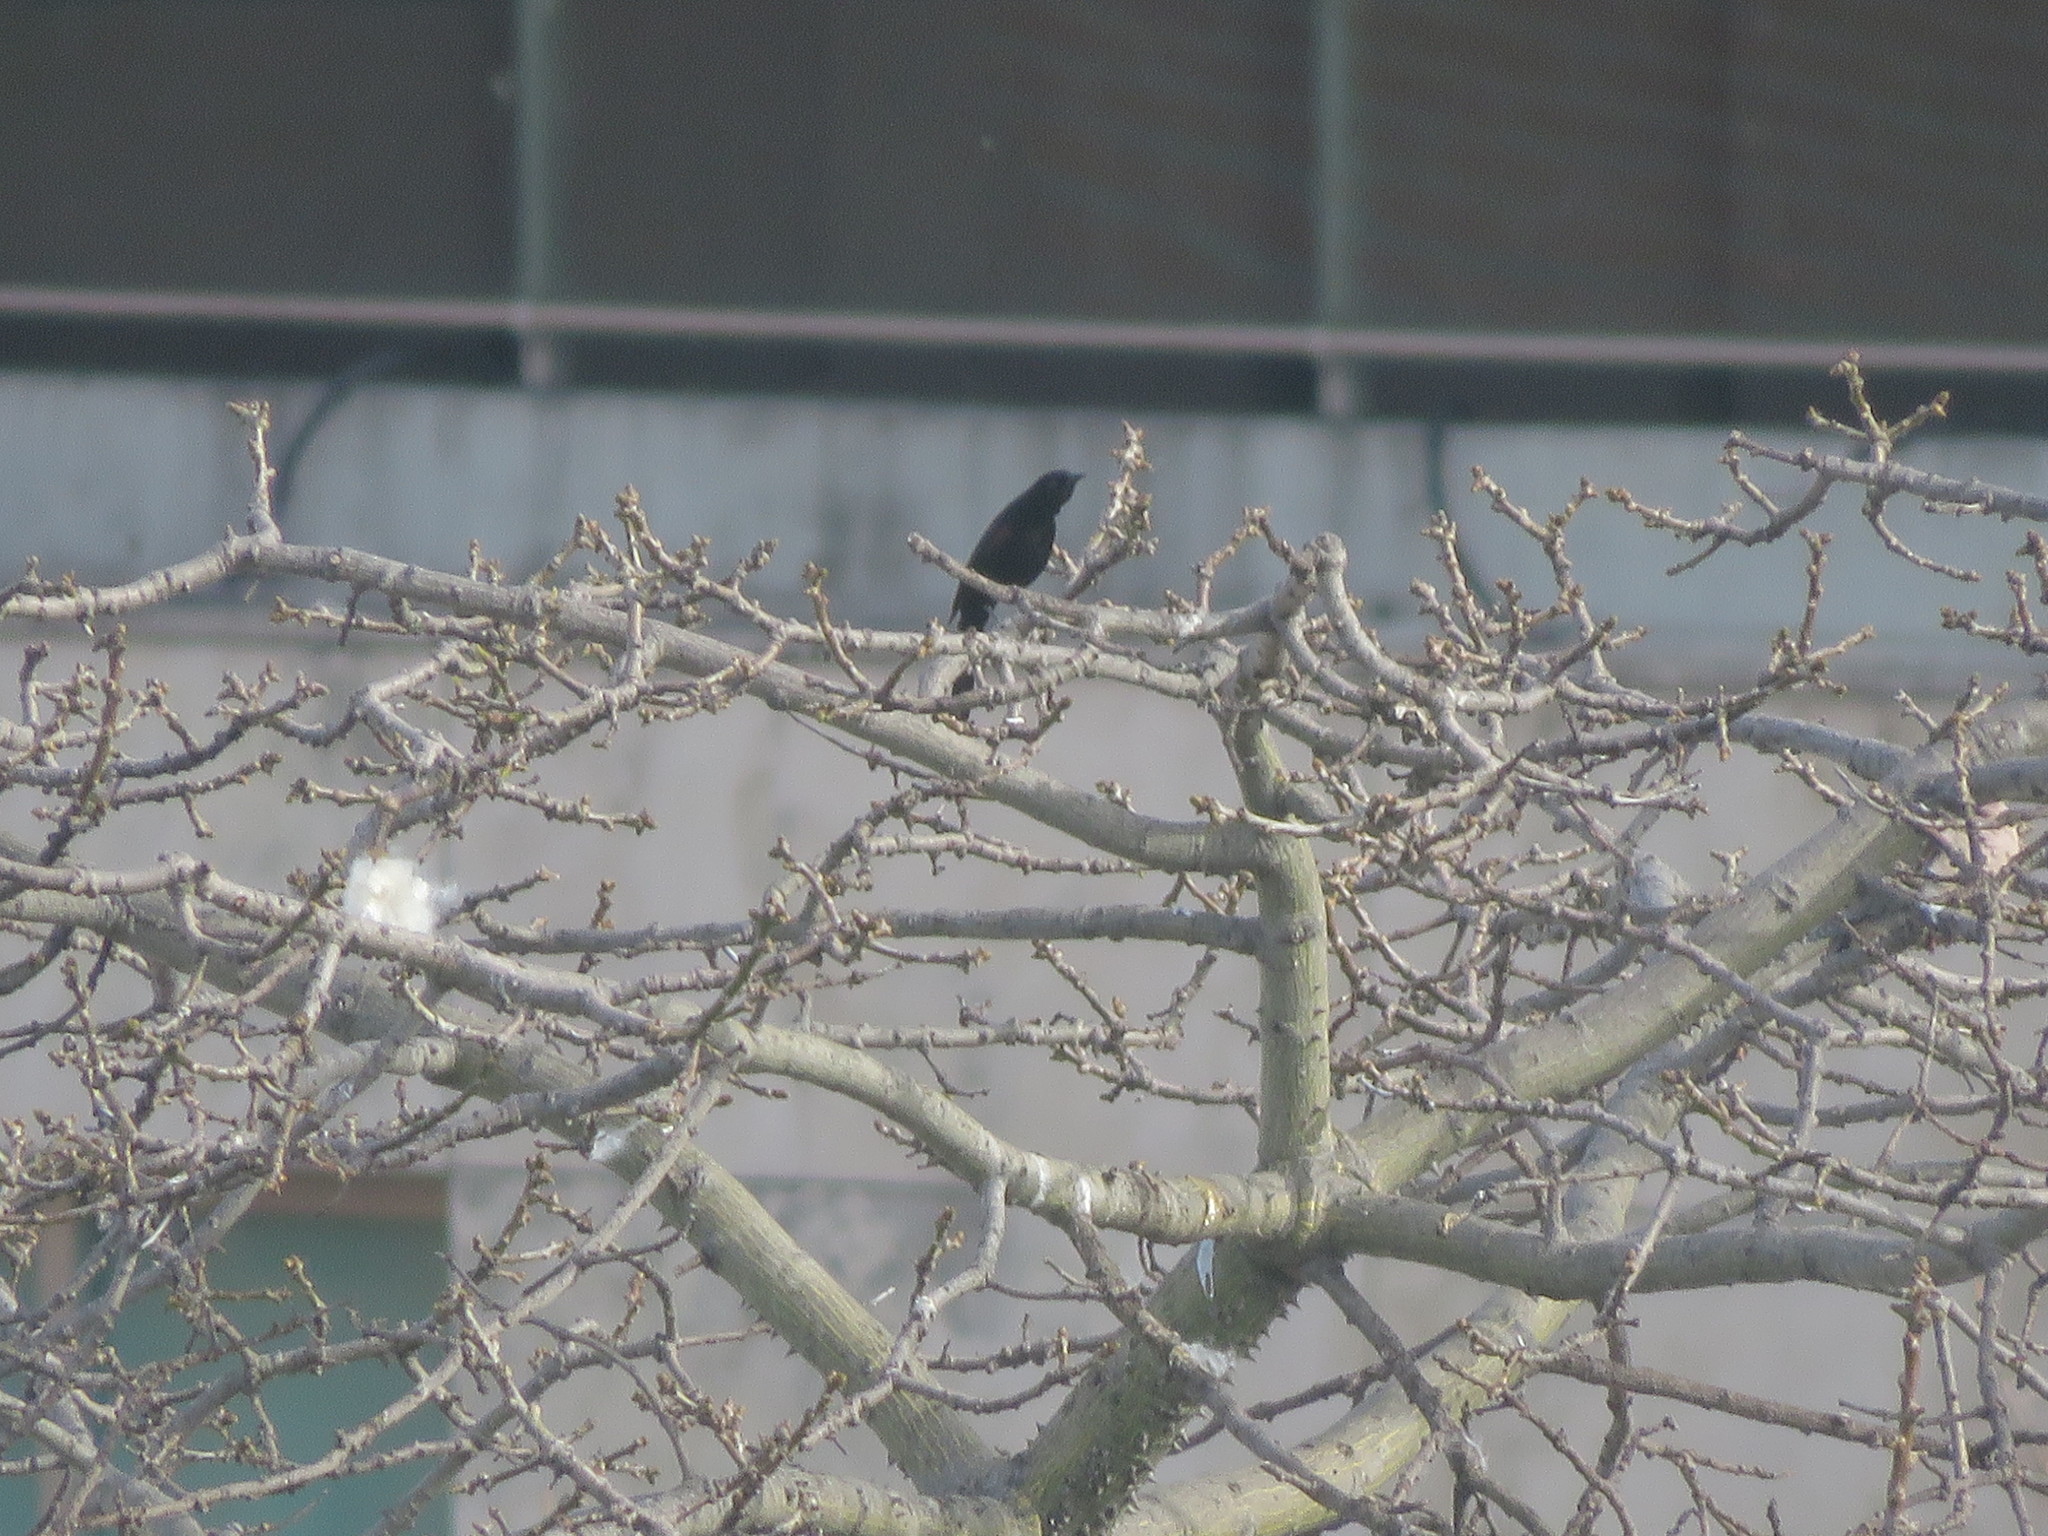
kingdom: Animalia
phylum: Chordata
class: Aves
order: Passeriformes
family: Icteridae
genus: Icterus
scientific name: Icterus cayanensis
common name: Epaulet oriole
